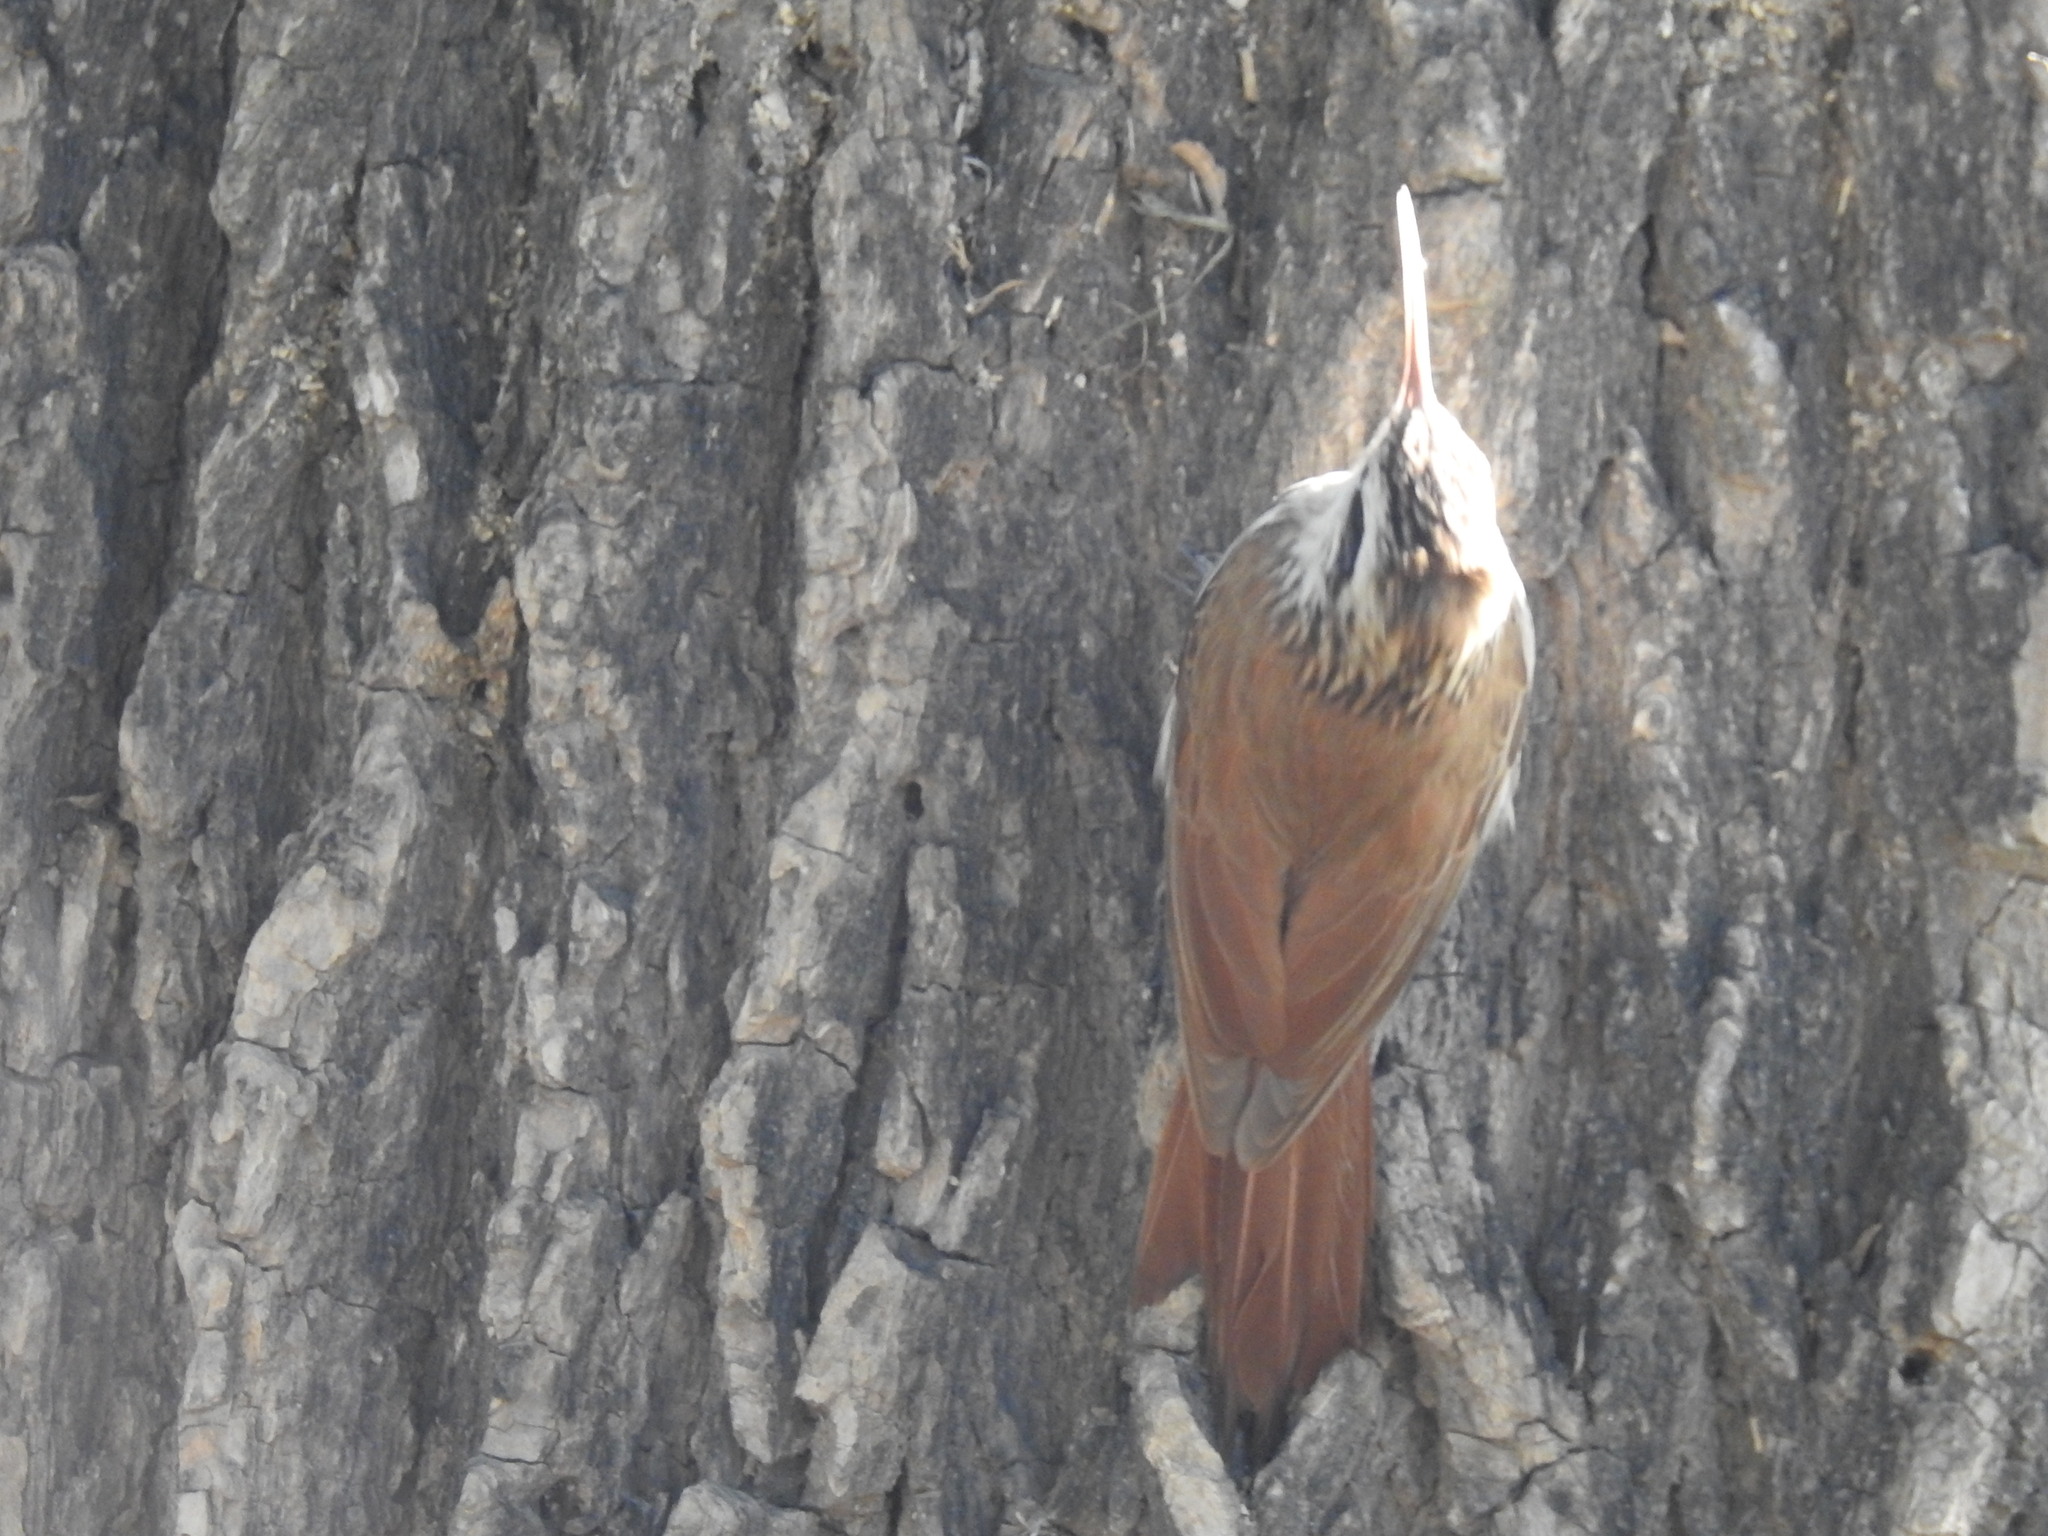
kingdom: Animalia
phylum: Chordata
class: Aves
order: Passeriformes
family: Furnariidae
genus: Lepidocolaptes
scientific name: Lepidocolaptes angustirostris
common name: Narrow-billed woodcreeper
